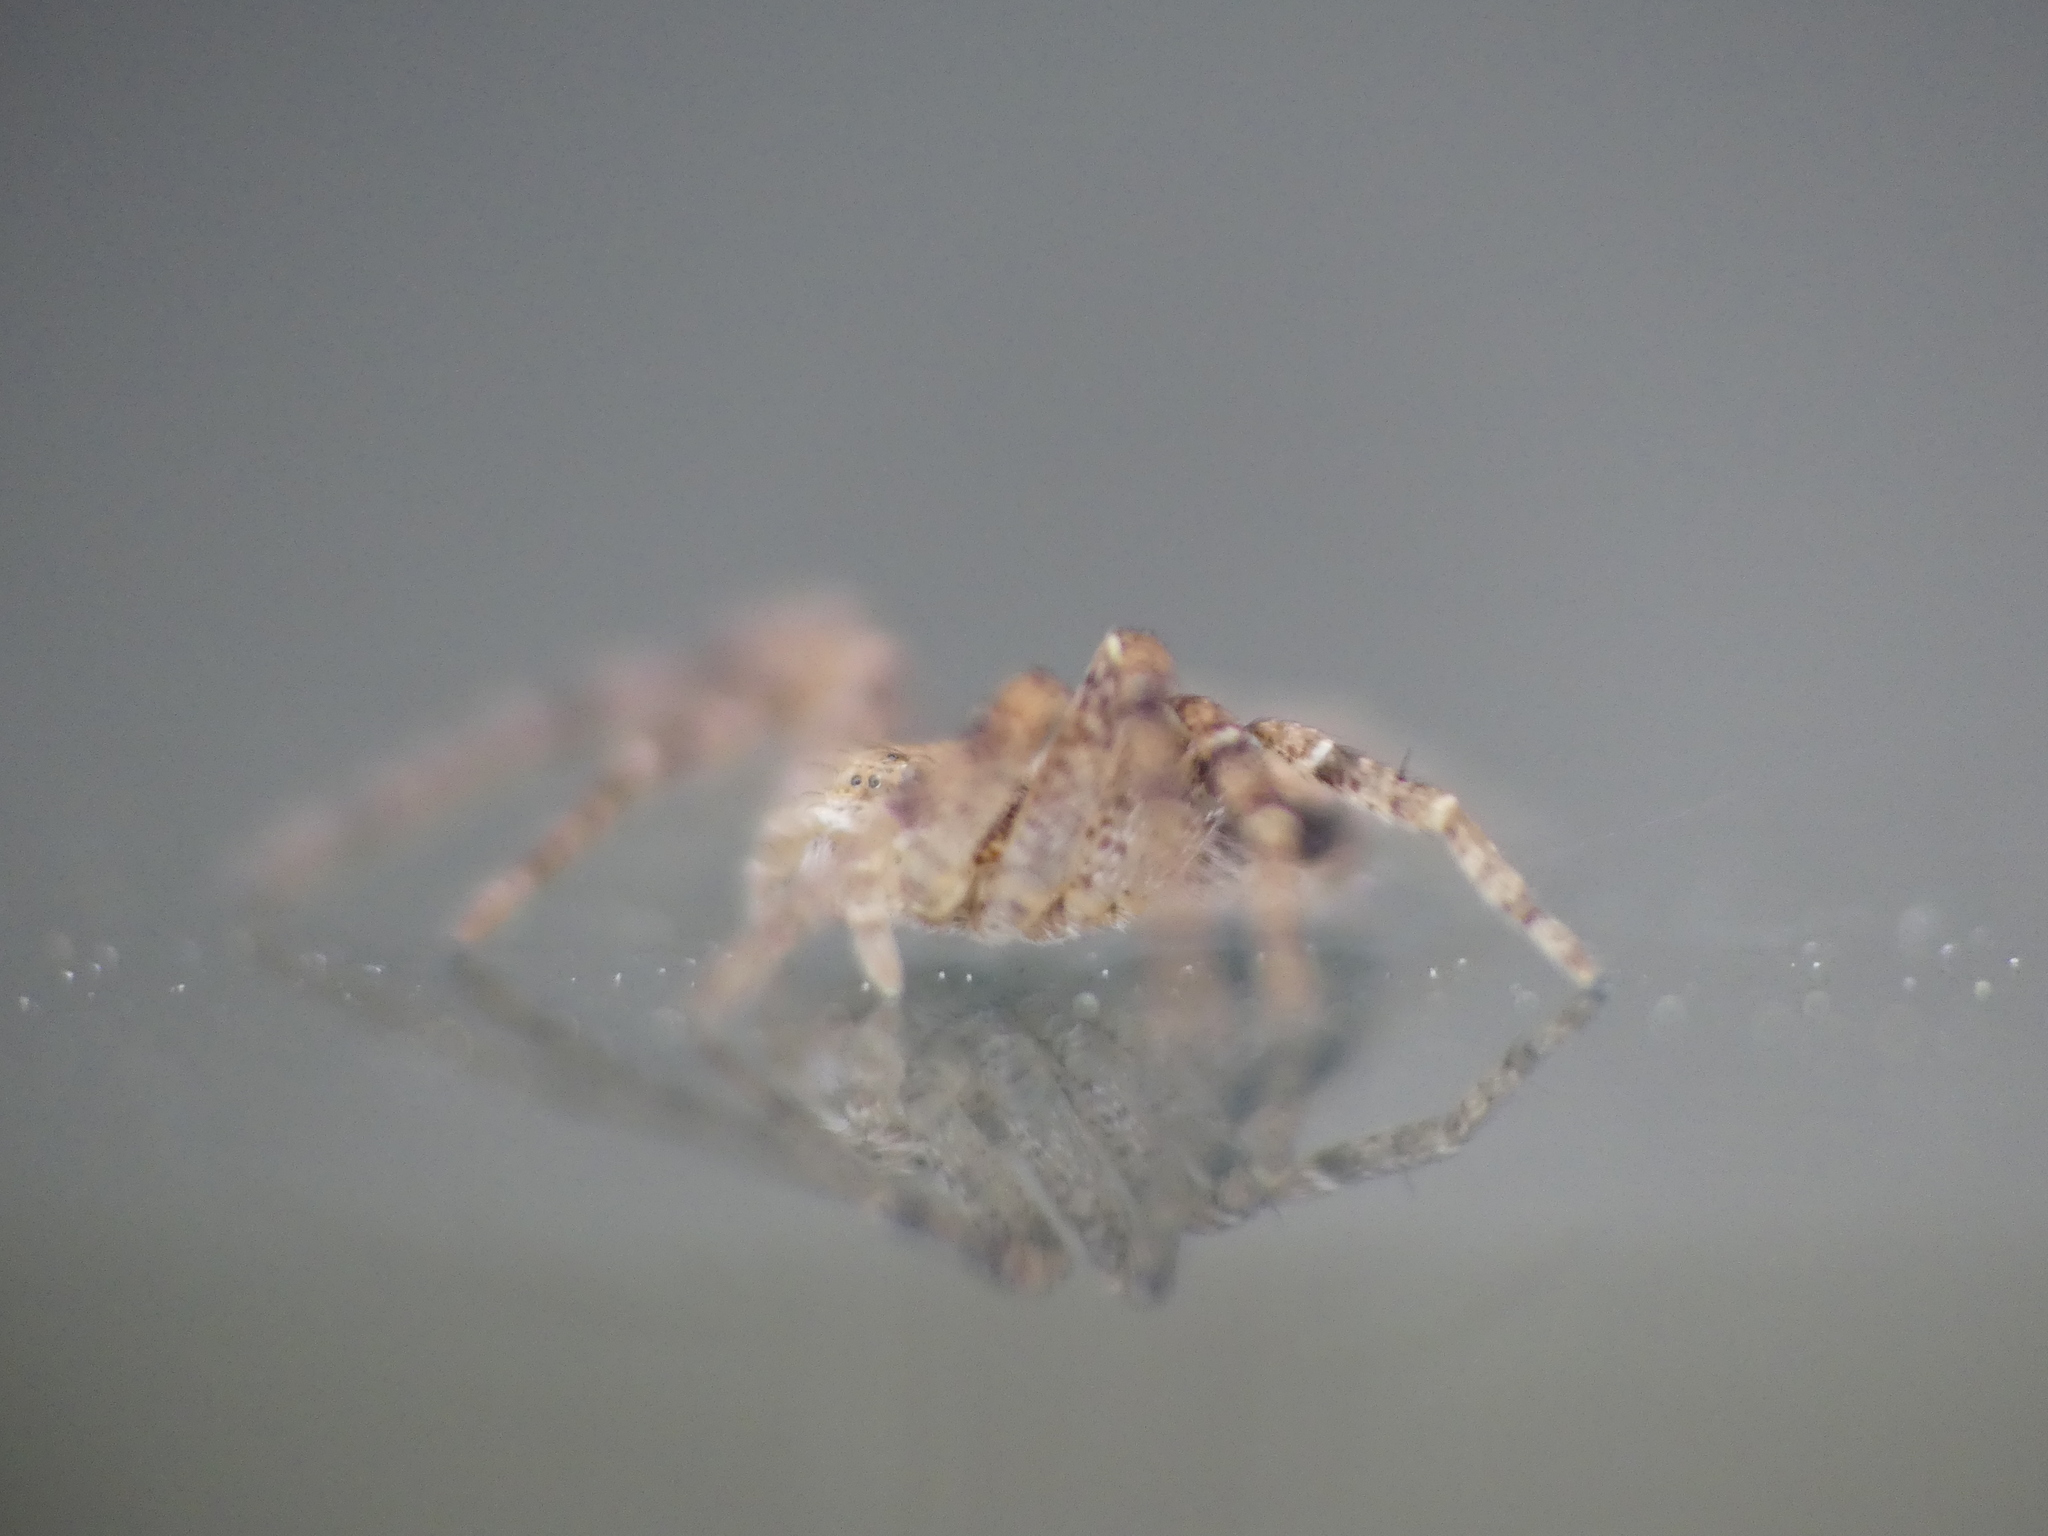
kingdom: Animalia
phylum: Arthropoda
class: Arachnida
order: Araneae
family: Philodromidae
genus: Philodromus
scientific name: Philodromus
